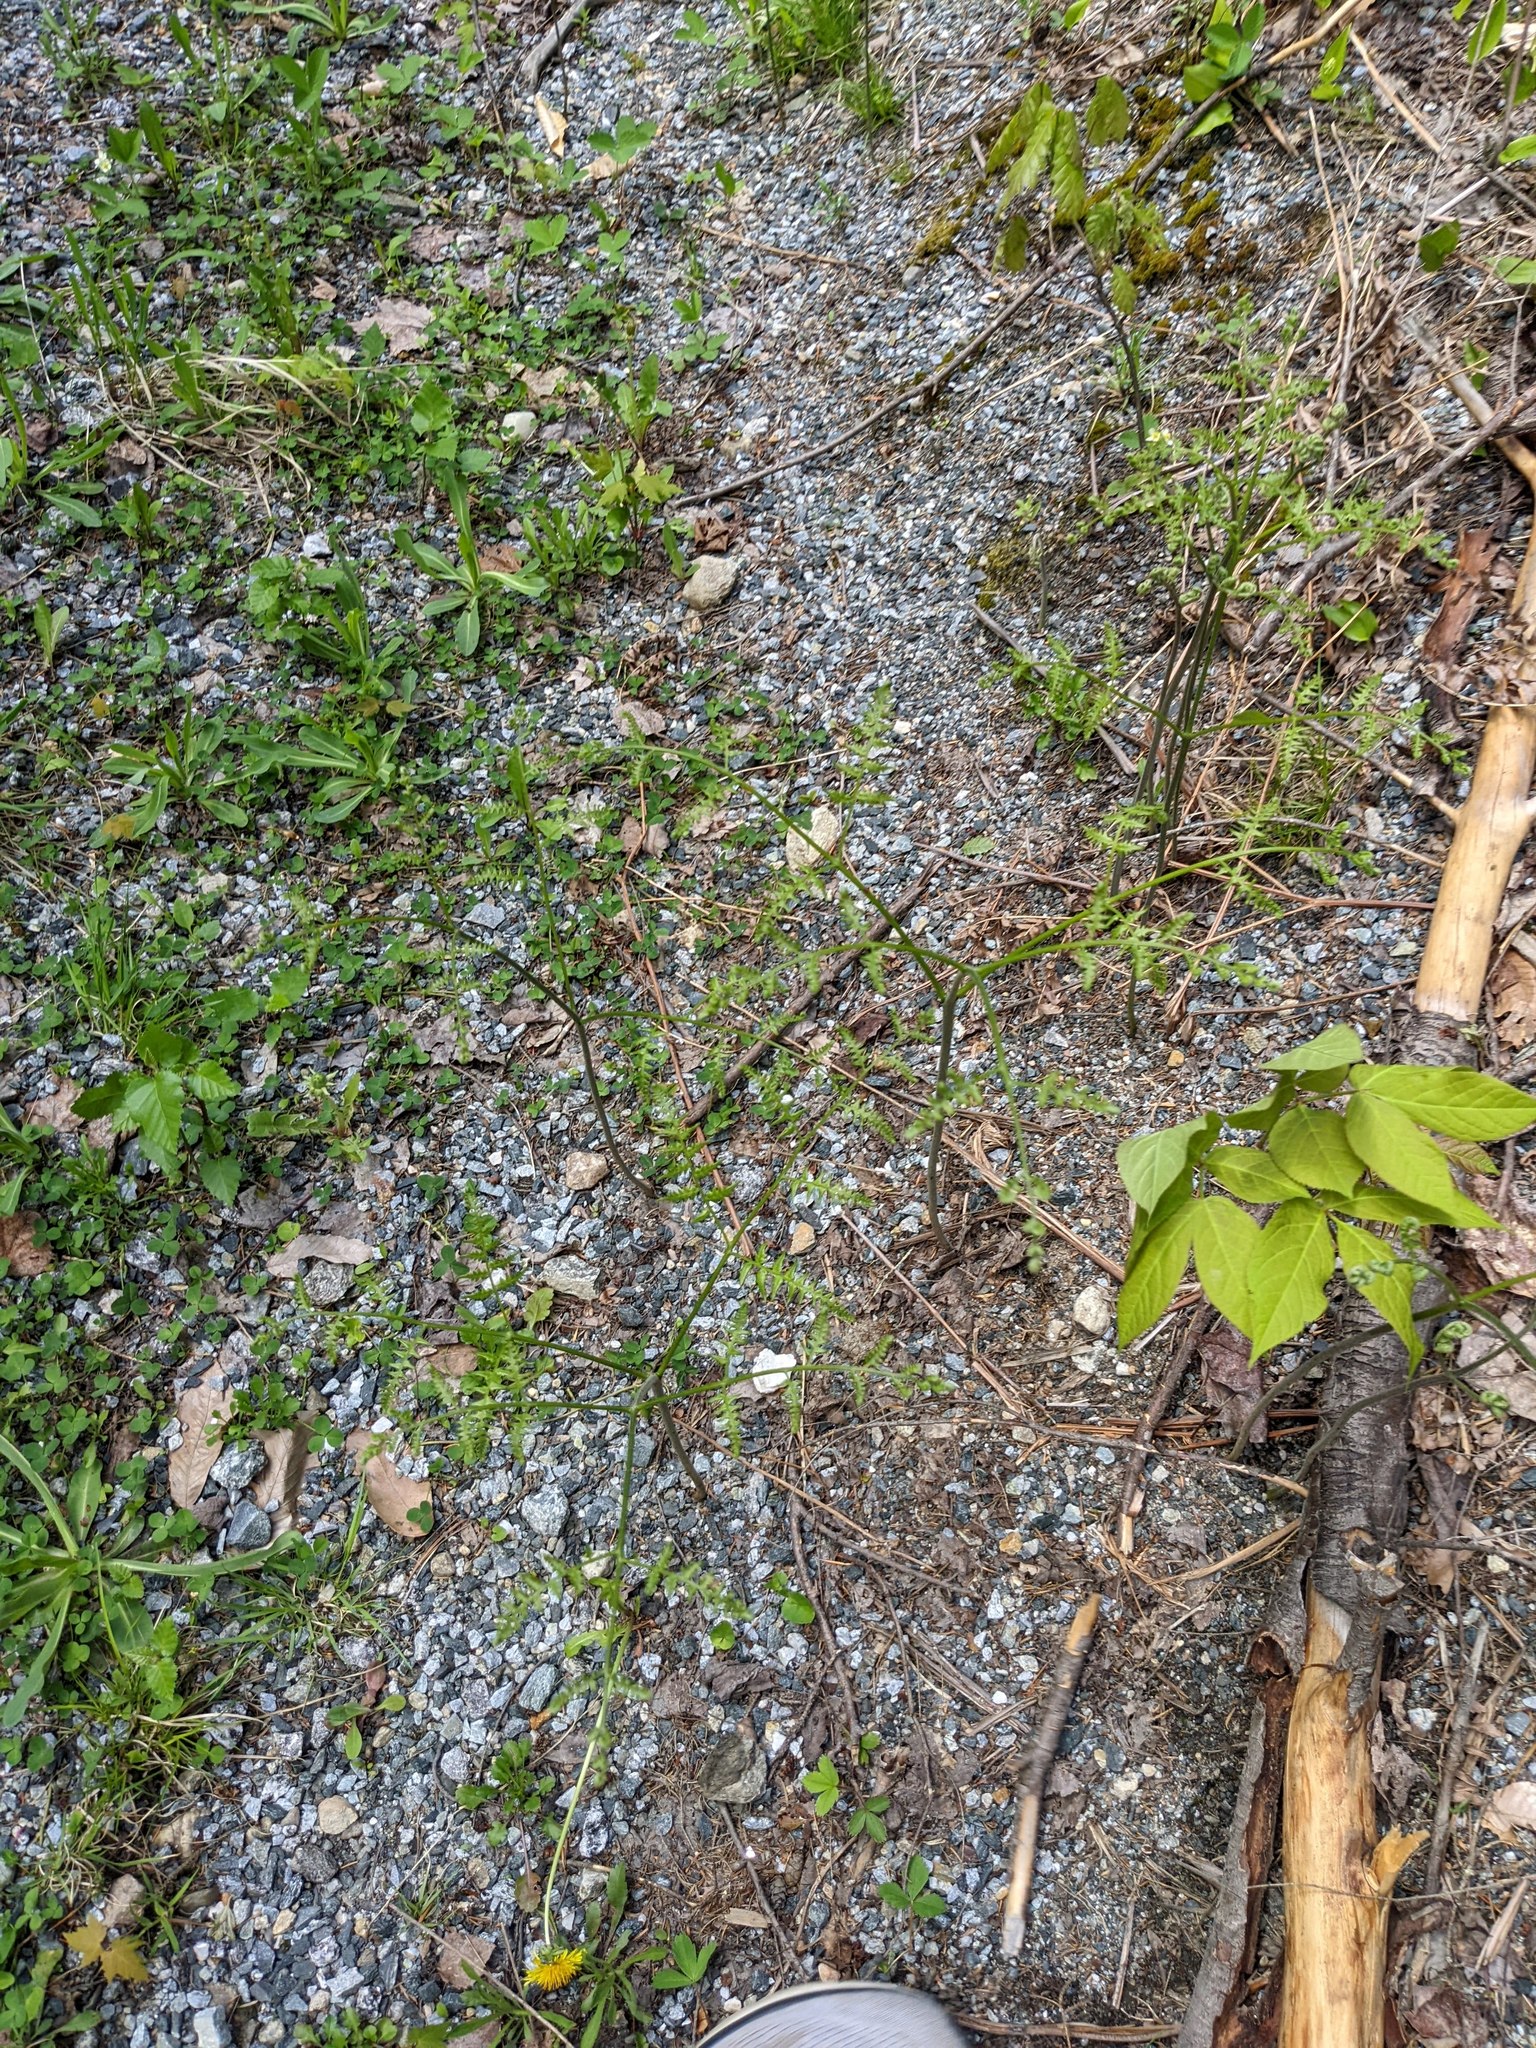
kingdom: Plantae
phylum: Tracheophyta
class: Polypodiopsida
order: Polypodiales
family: Dennstaedtiaceae
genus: Pteridium
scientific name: Pteridium aquilinum
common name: Bracken
